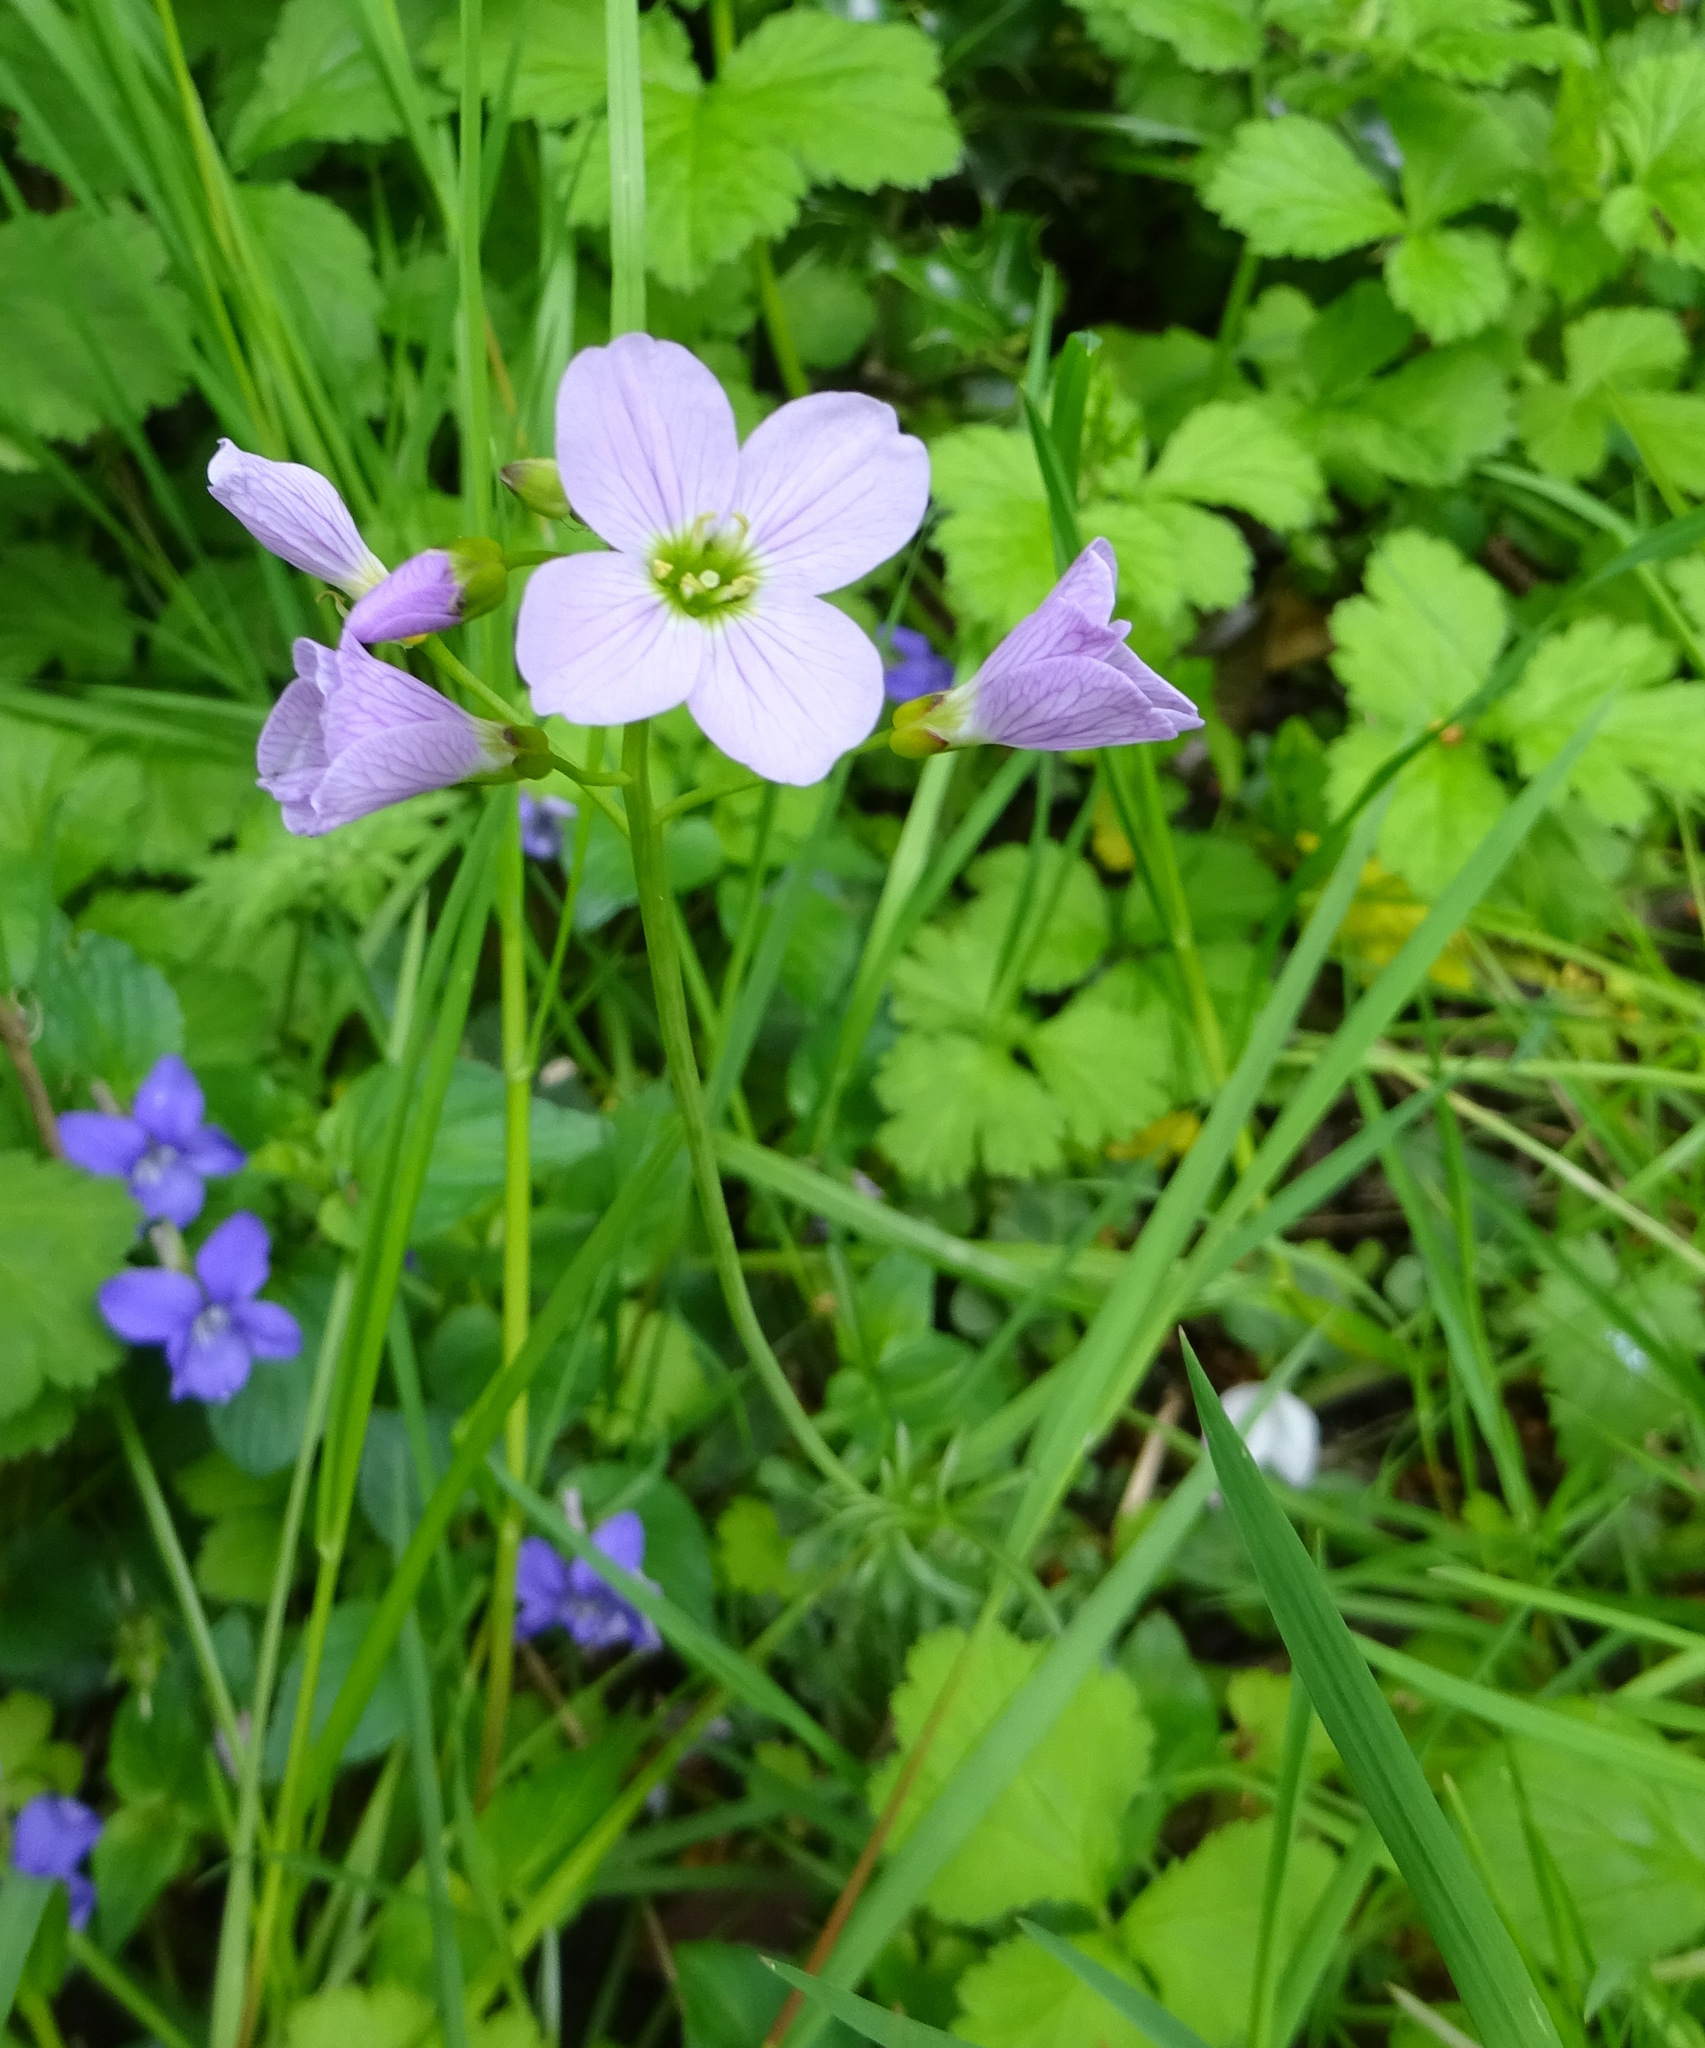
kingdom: Plantae
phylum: Tracheophyta
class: Magnoliopsida
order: Brassicales
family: Brassicaceae
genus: Cardamine
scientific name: Cardamine pratensis
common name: Cuckoo flower
